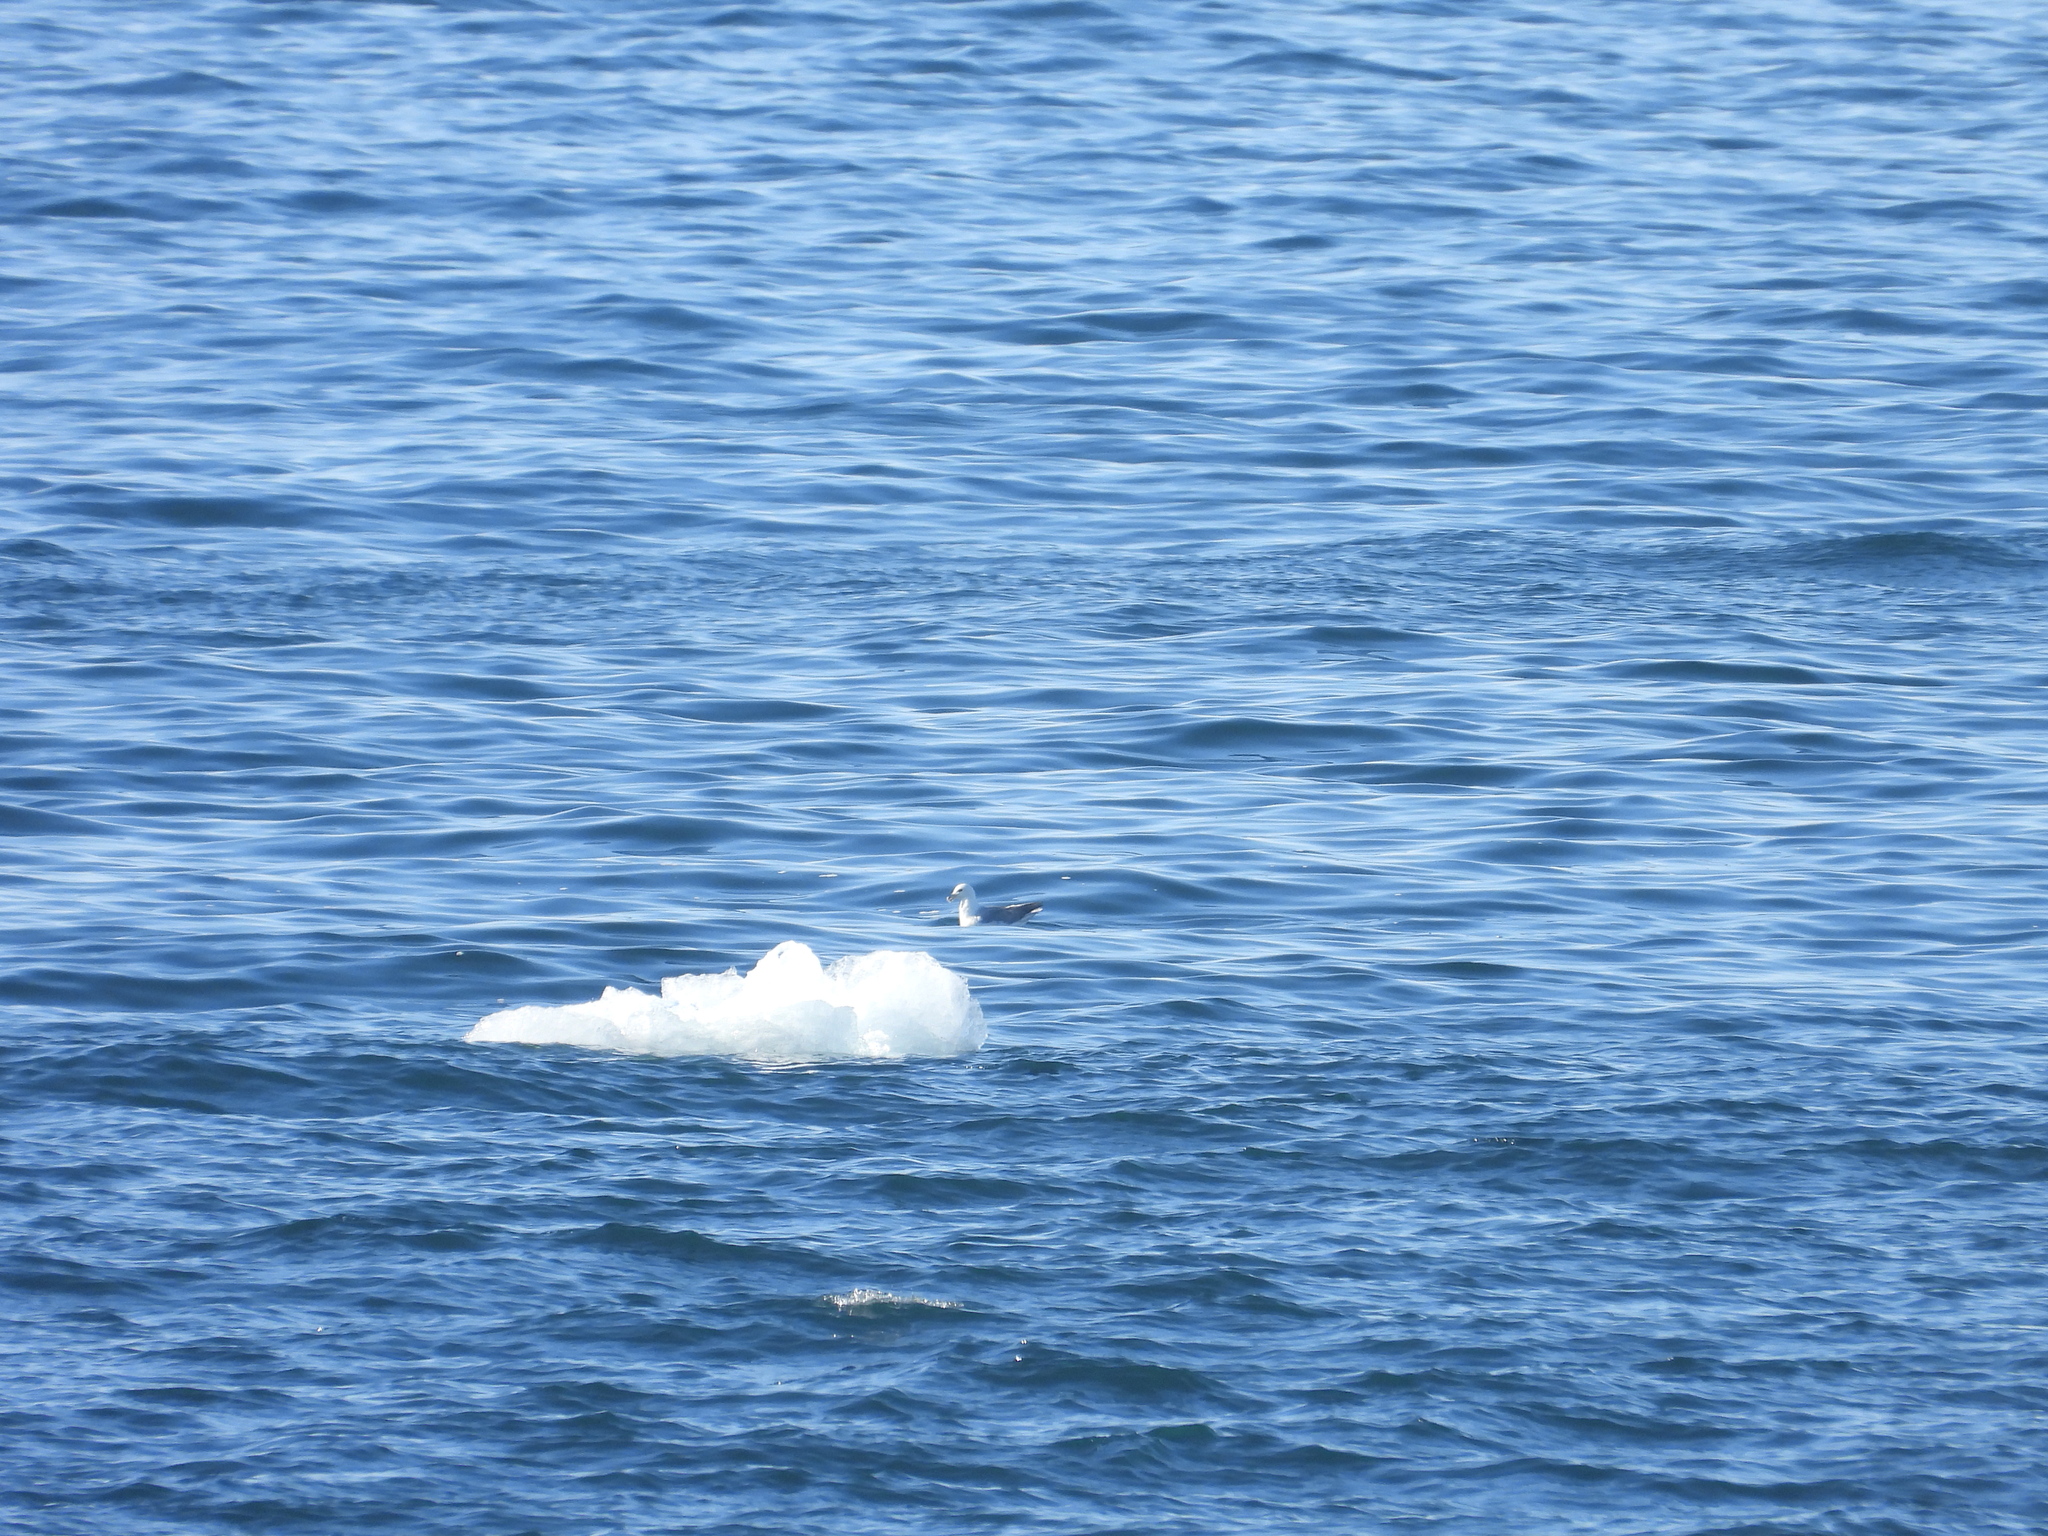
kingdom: Animalia
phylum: Chordata
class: Aves
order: Procellariiformes
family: Procellariidae
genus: Fulmarus
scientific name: Fulmarus glacialis
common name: Northern fulmar
